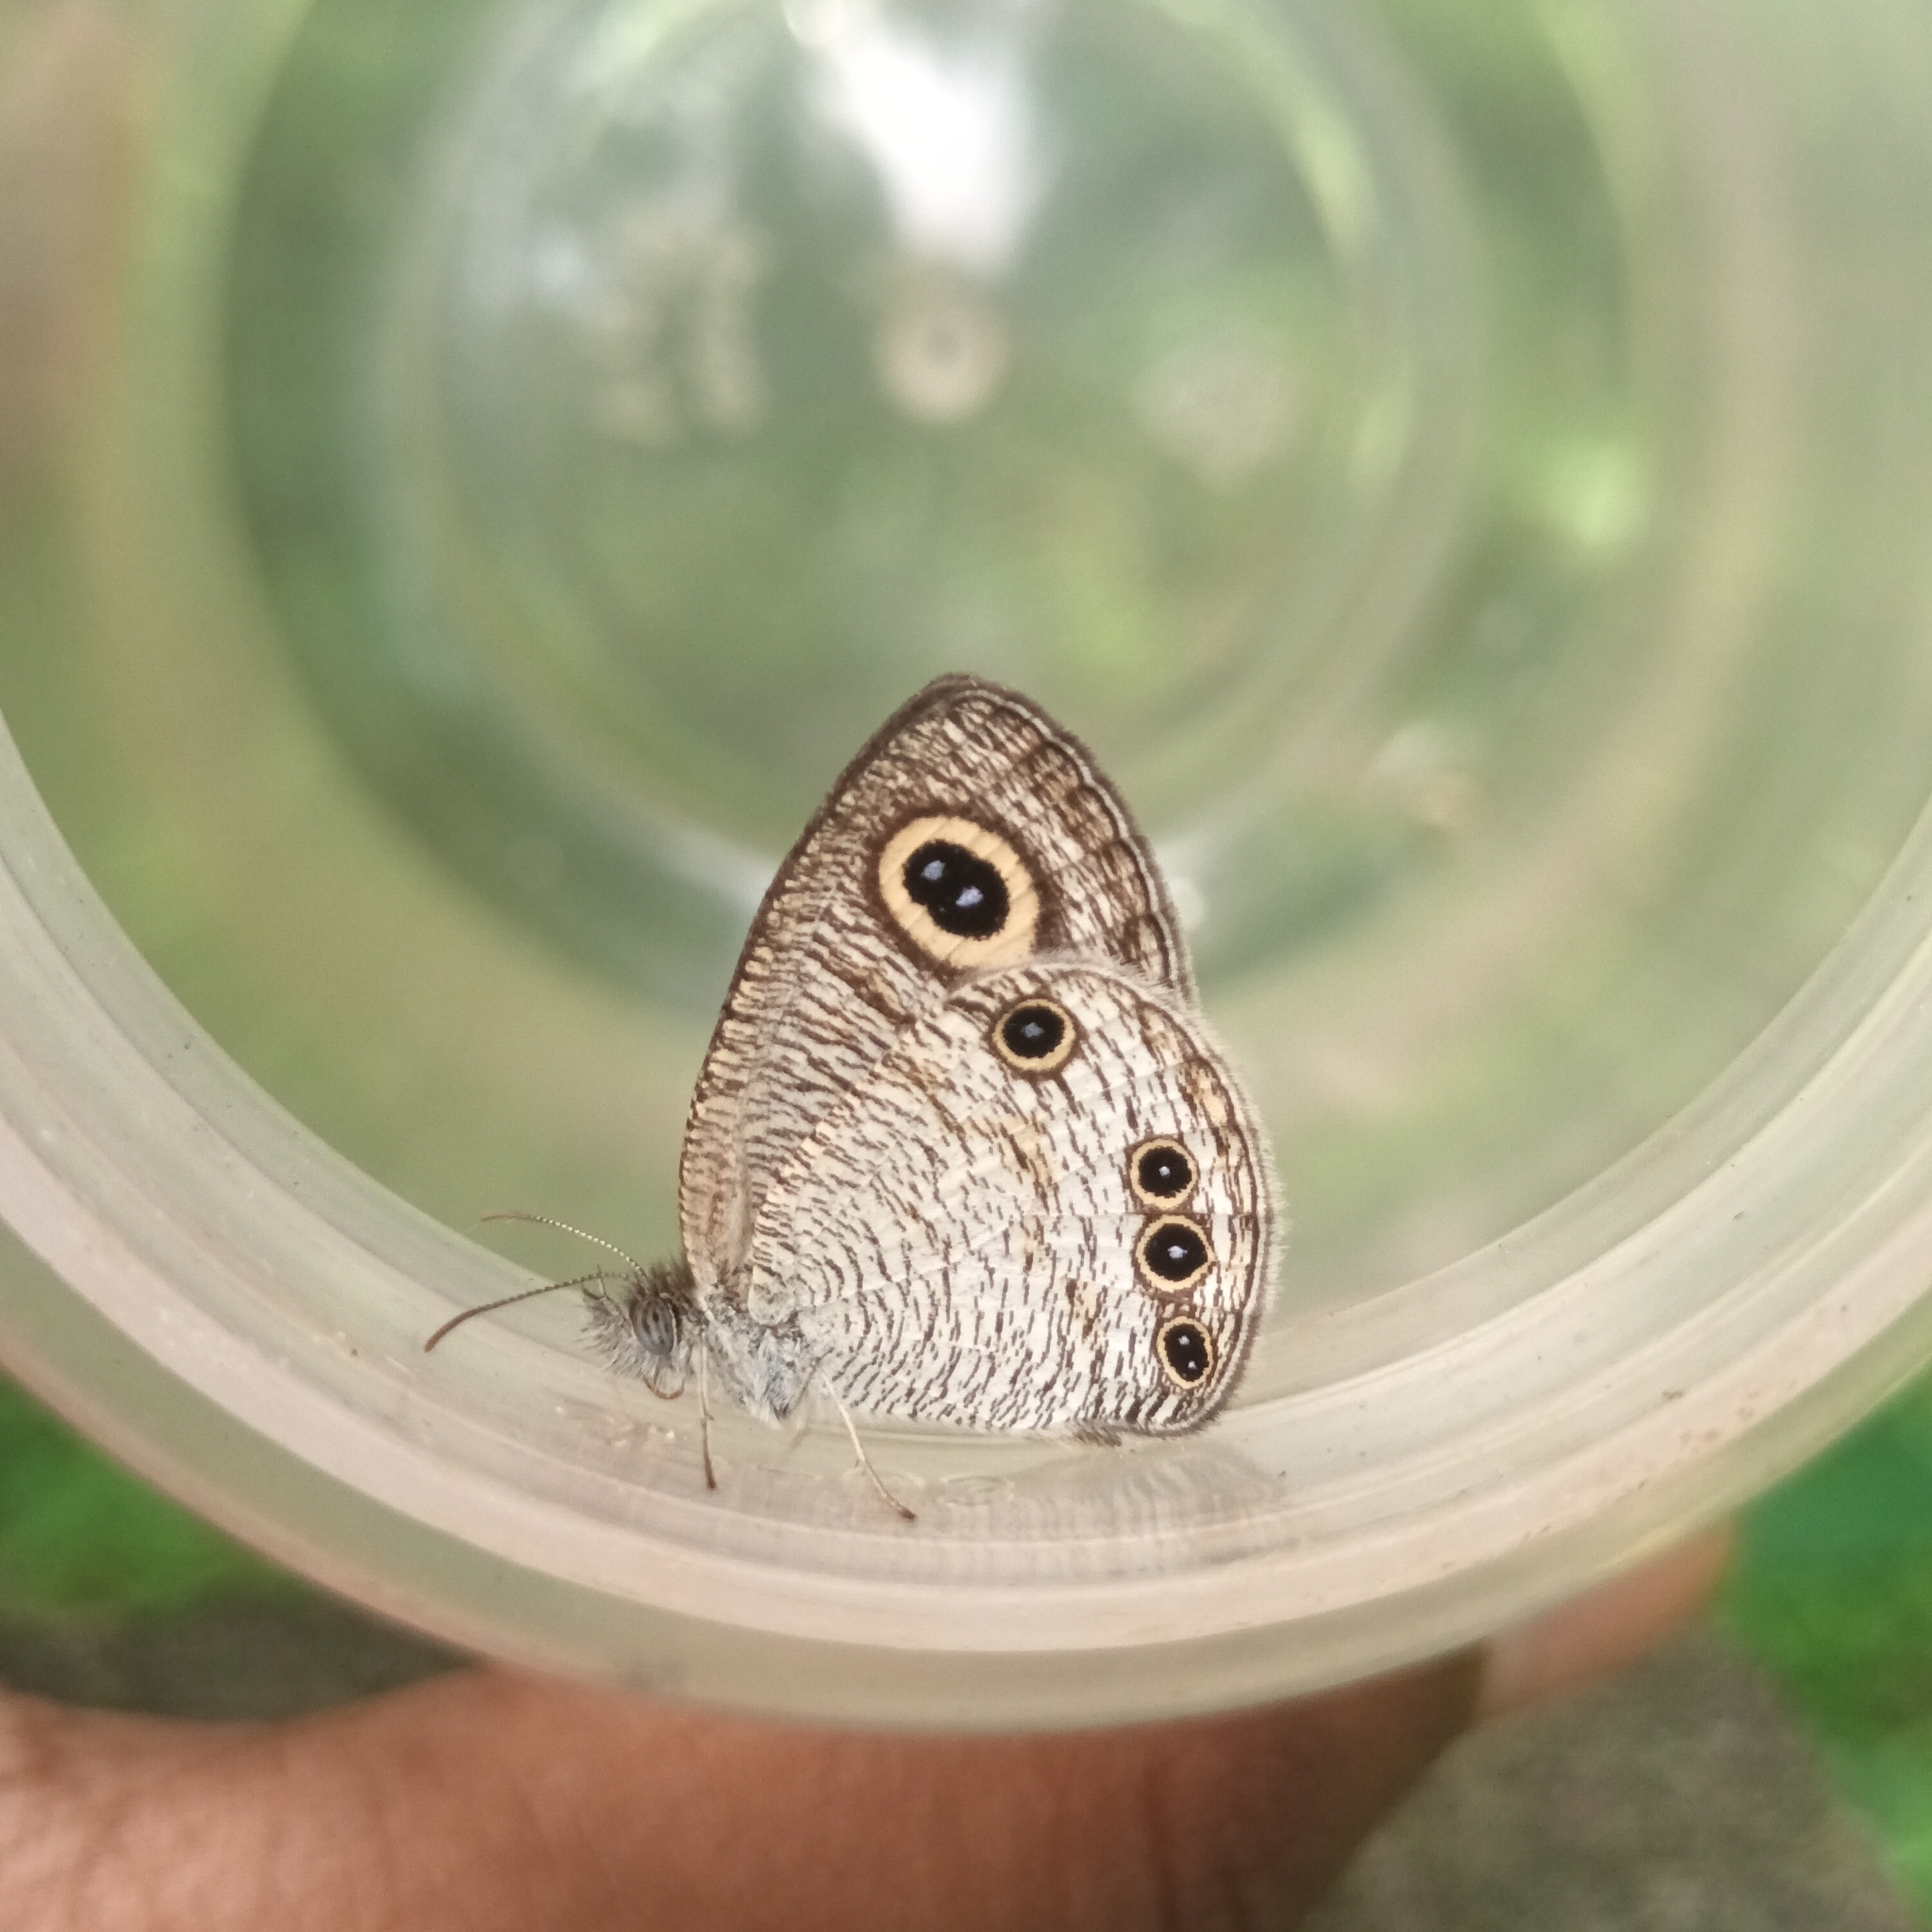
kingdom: Animalia
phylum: Arthropoda
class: Insecta
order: Lepidoptera
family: Nymphalidae
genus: Ypthima
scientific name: Ypthima huebneri
